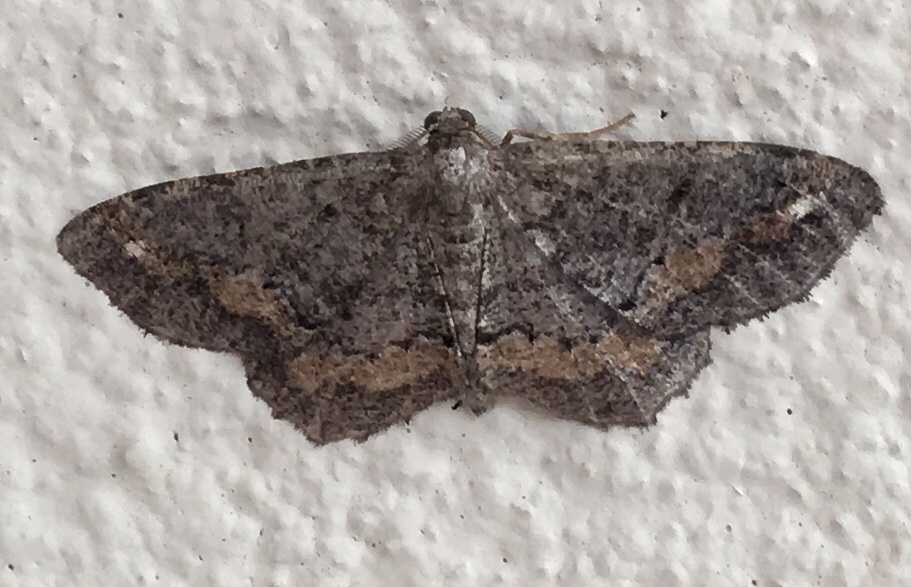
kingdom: Animalia
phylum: Arthropoda
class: Insecta
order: Lepidoptera
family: Geometridae
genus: Hypagyrtis
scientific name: Hypagyrtis esther
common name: Esther moth
